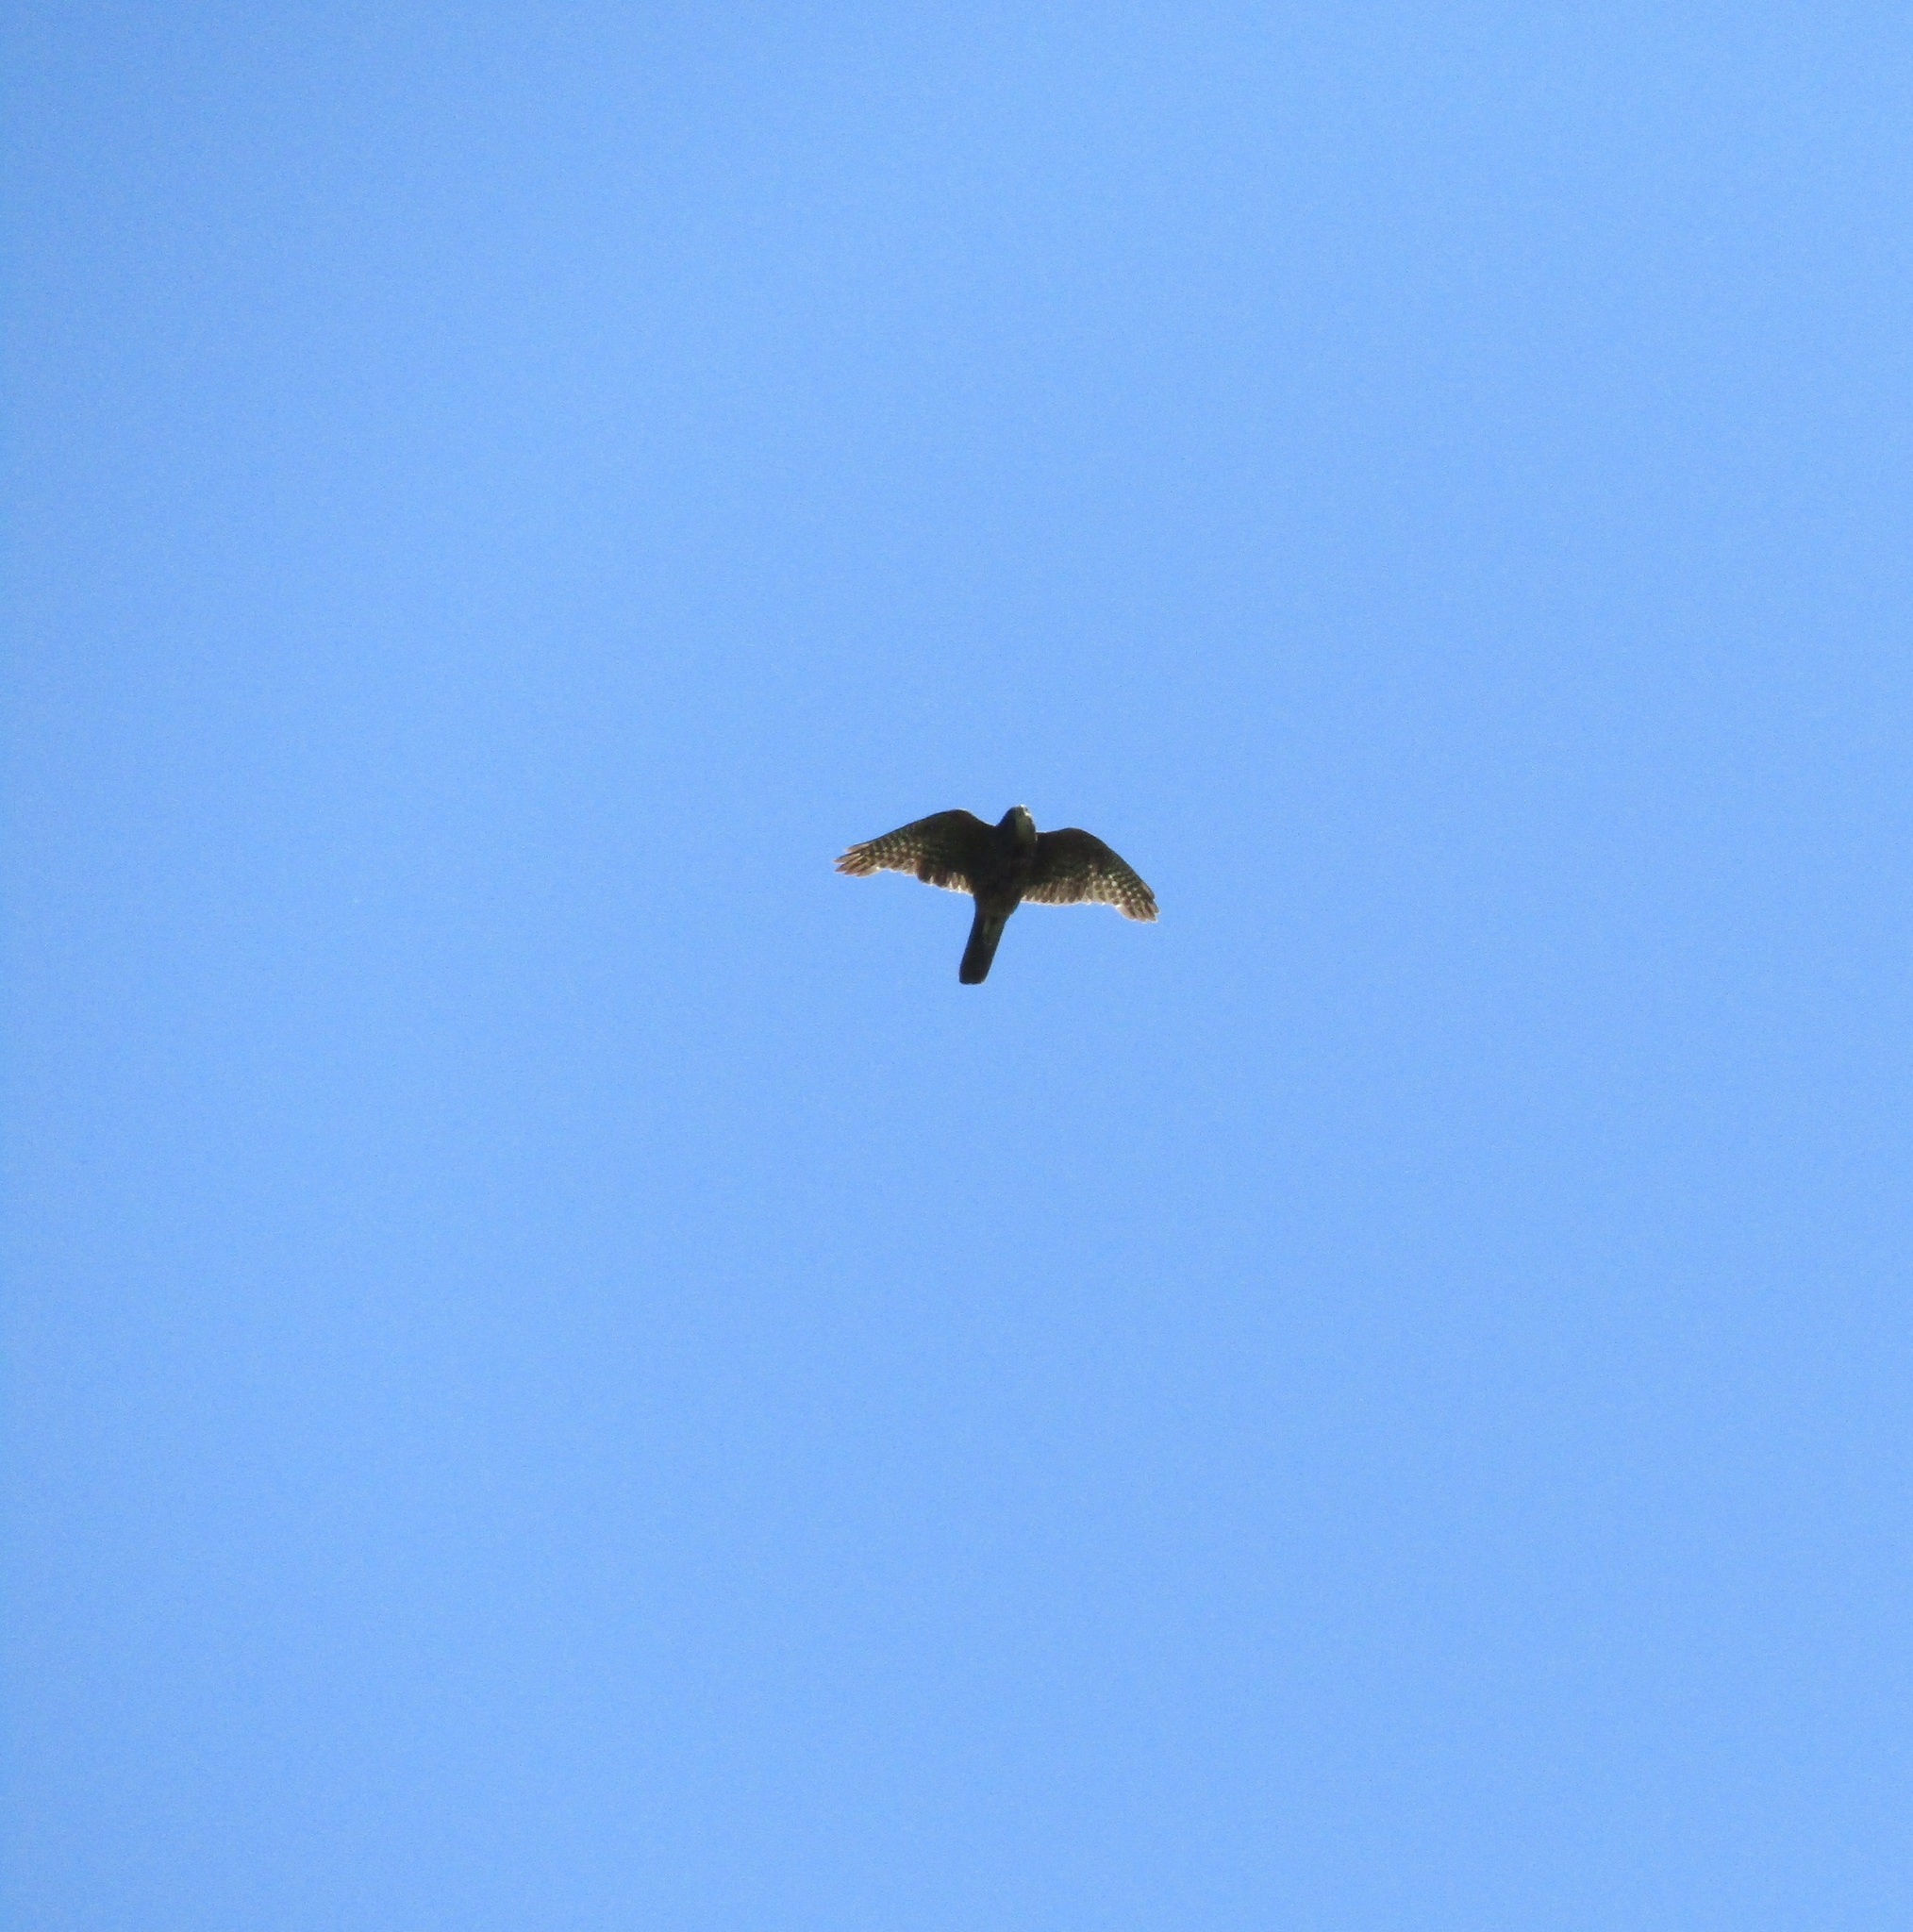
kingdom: Animalia
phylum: Chordata
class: Aves
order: Falconiformes
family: Falconidae
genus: Falco
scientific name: Falco novaeseelandiae
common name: New zealand falcon
